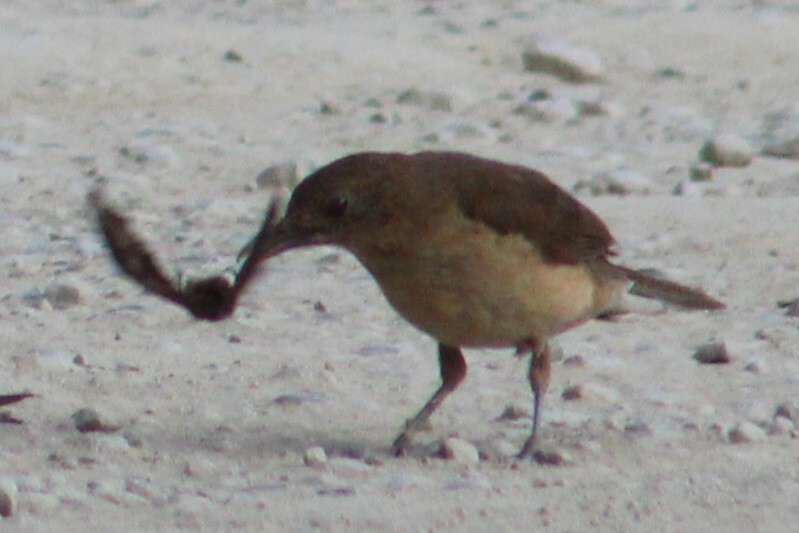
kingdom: Animalia
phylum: Chordata
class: Aves
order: Passeriformes
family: Turdidae
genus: Turdus
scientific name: Turdus grayi
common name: Clay-colored thrush
